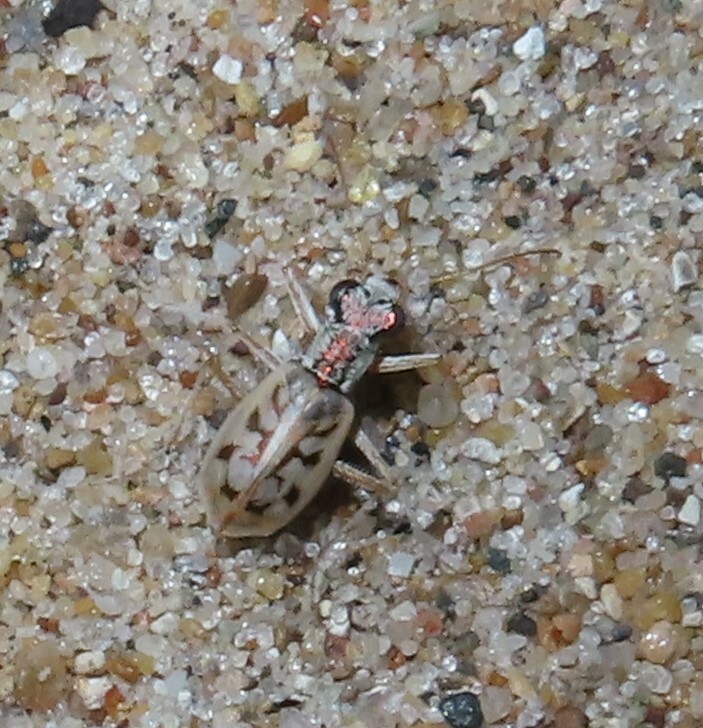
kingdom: Animalia
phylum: Arthropoda
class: Insecta
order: Coleoptera
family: Carabidae
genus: Ellipsoptera
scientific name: Ellipsoptera lepida
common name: Ghost tiger beetle
